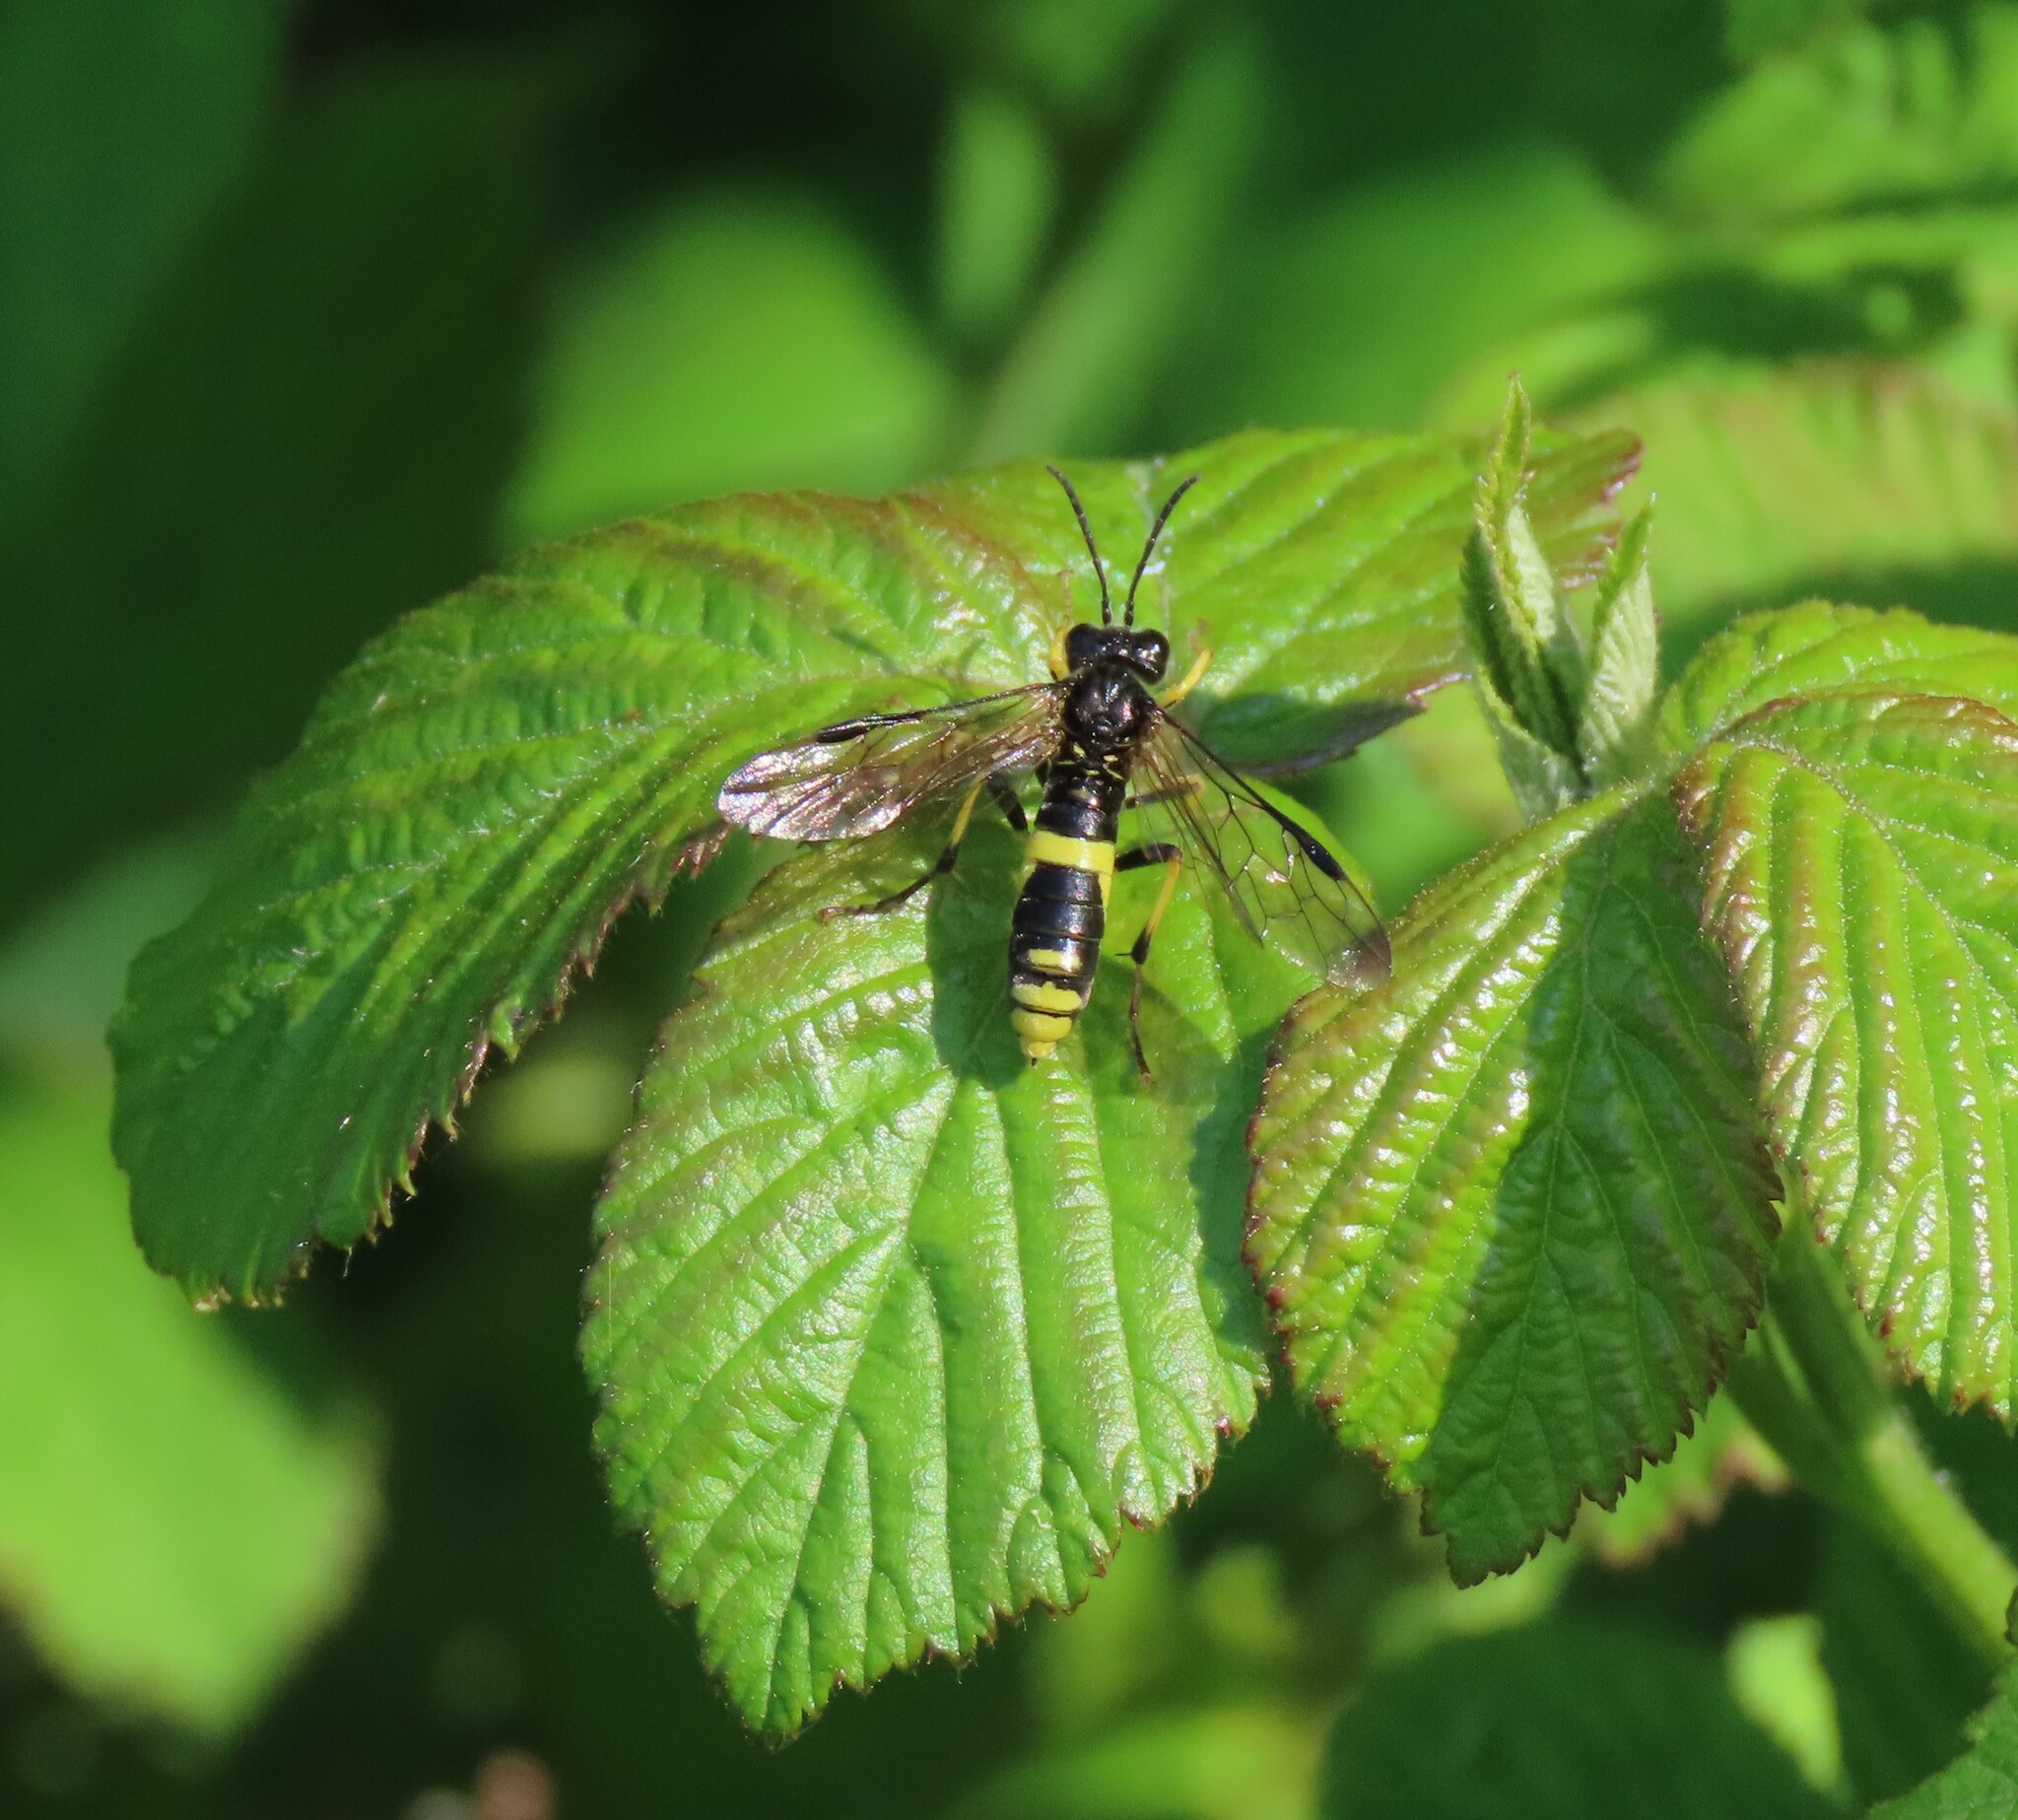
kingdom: Animalia
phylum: Arthropoda
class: Insecta
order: Hymenoptera
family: Tenthredinidae
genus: Tenthredo
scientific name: Tenthredo temula
